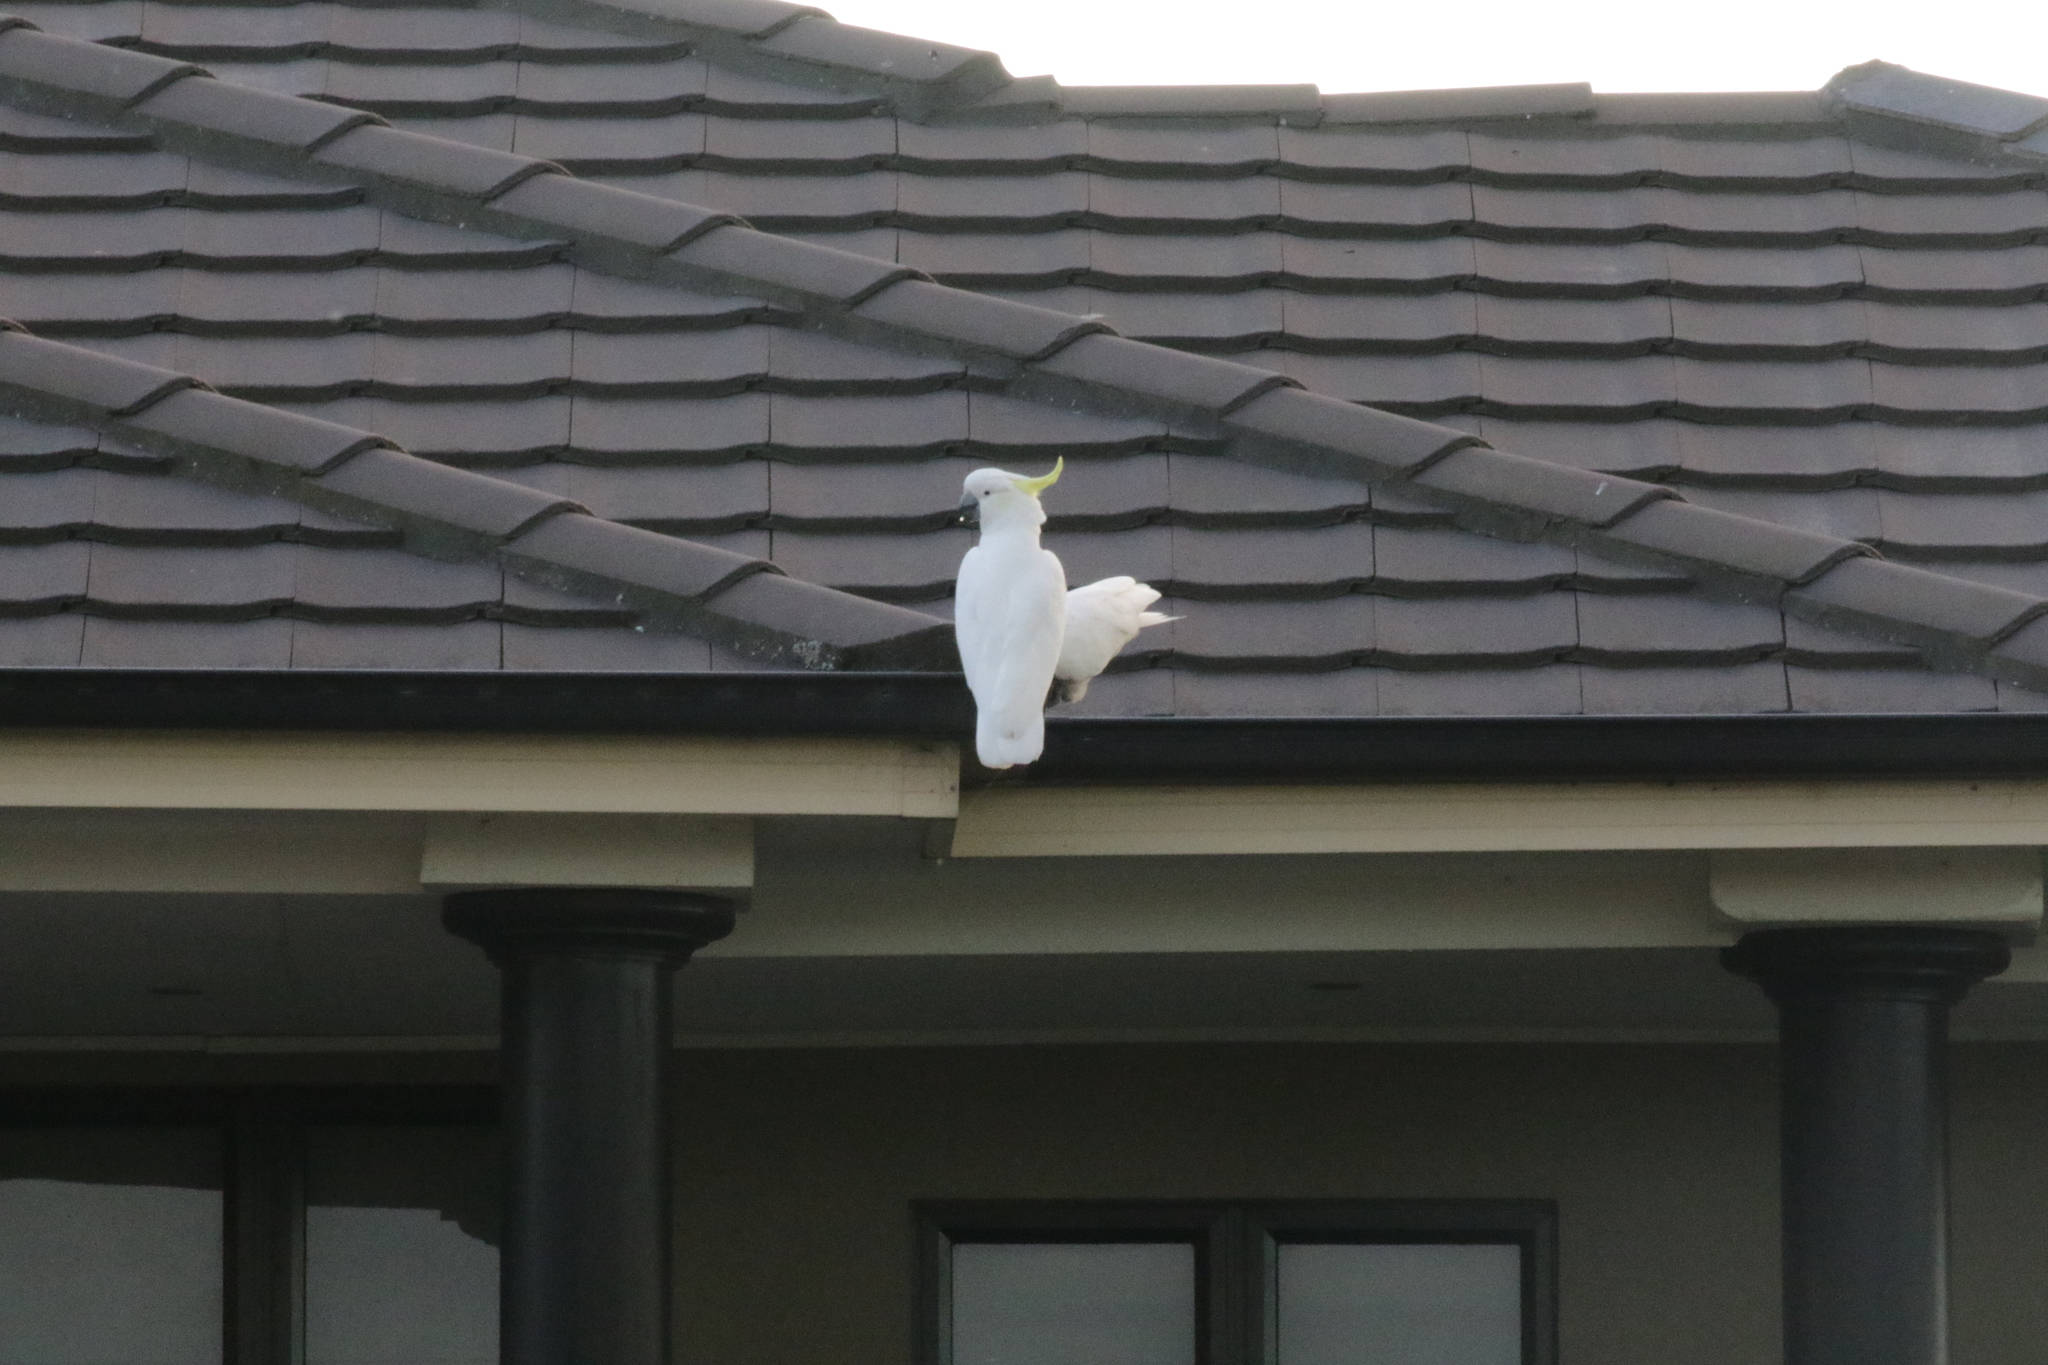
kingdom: Animalia
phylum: Chordata
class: Aves
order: Psittaciformes
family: Psittacidae
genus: Cacatua
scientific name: Cacatua galerita
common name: Sulphur-crested cockatoo
